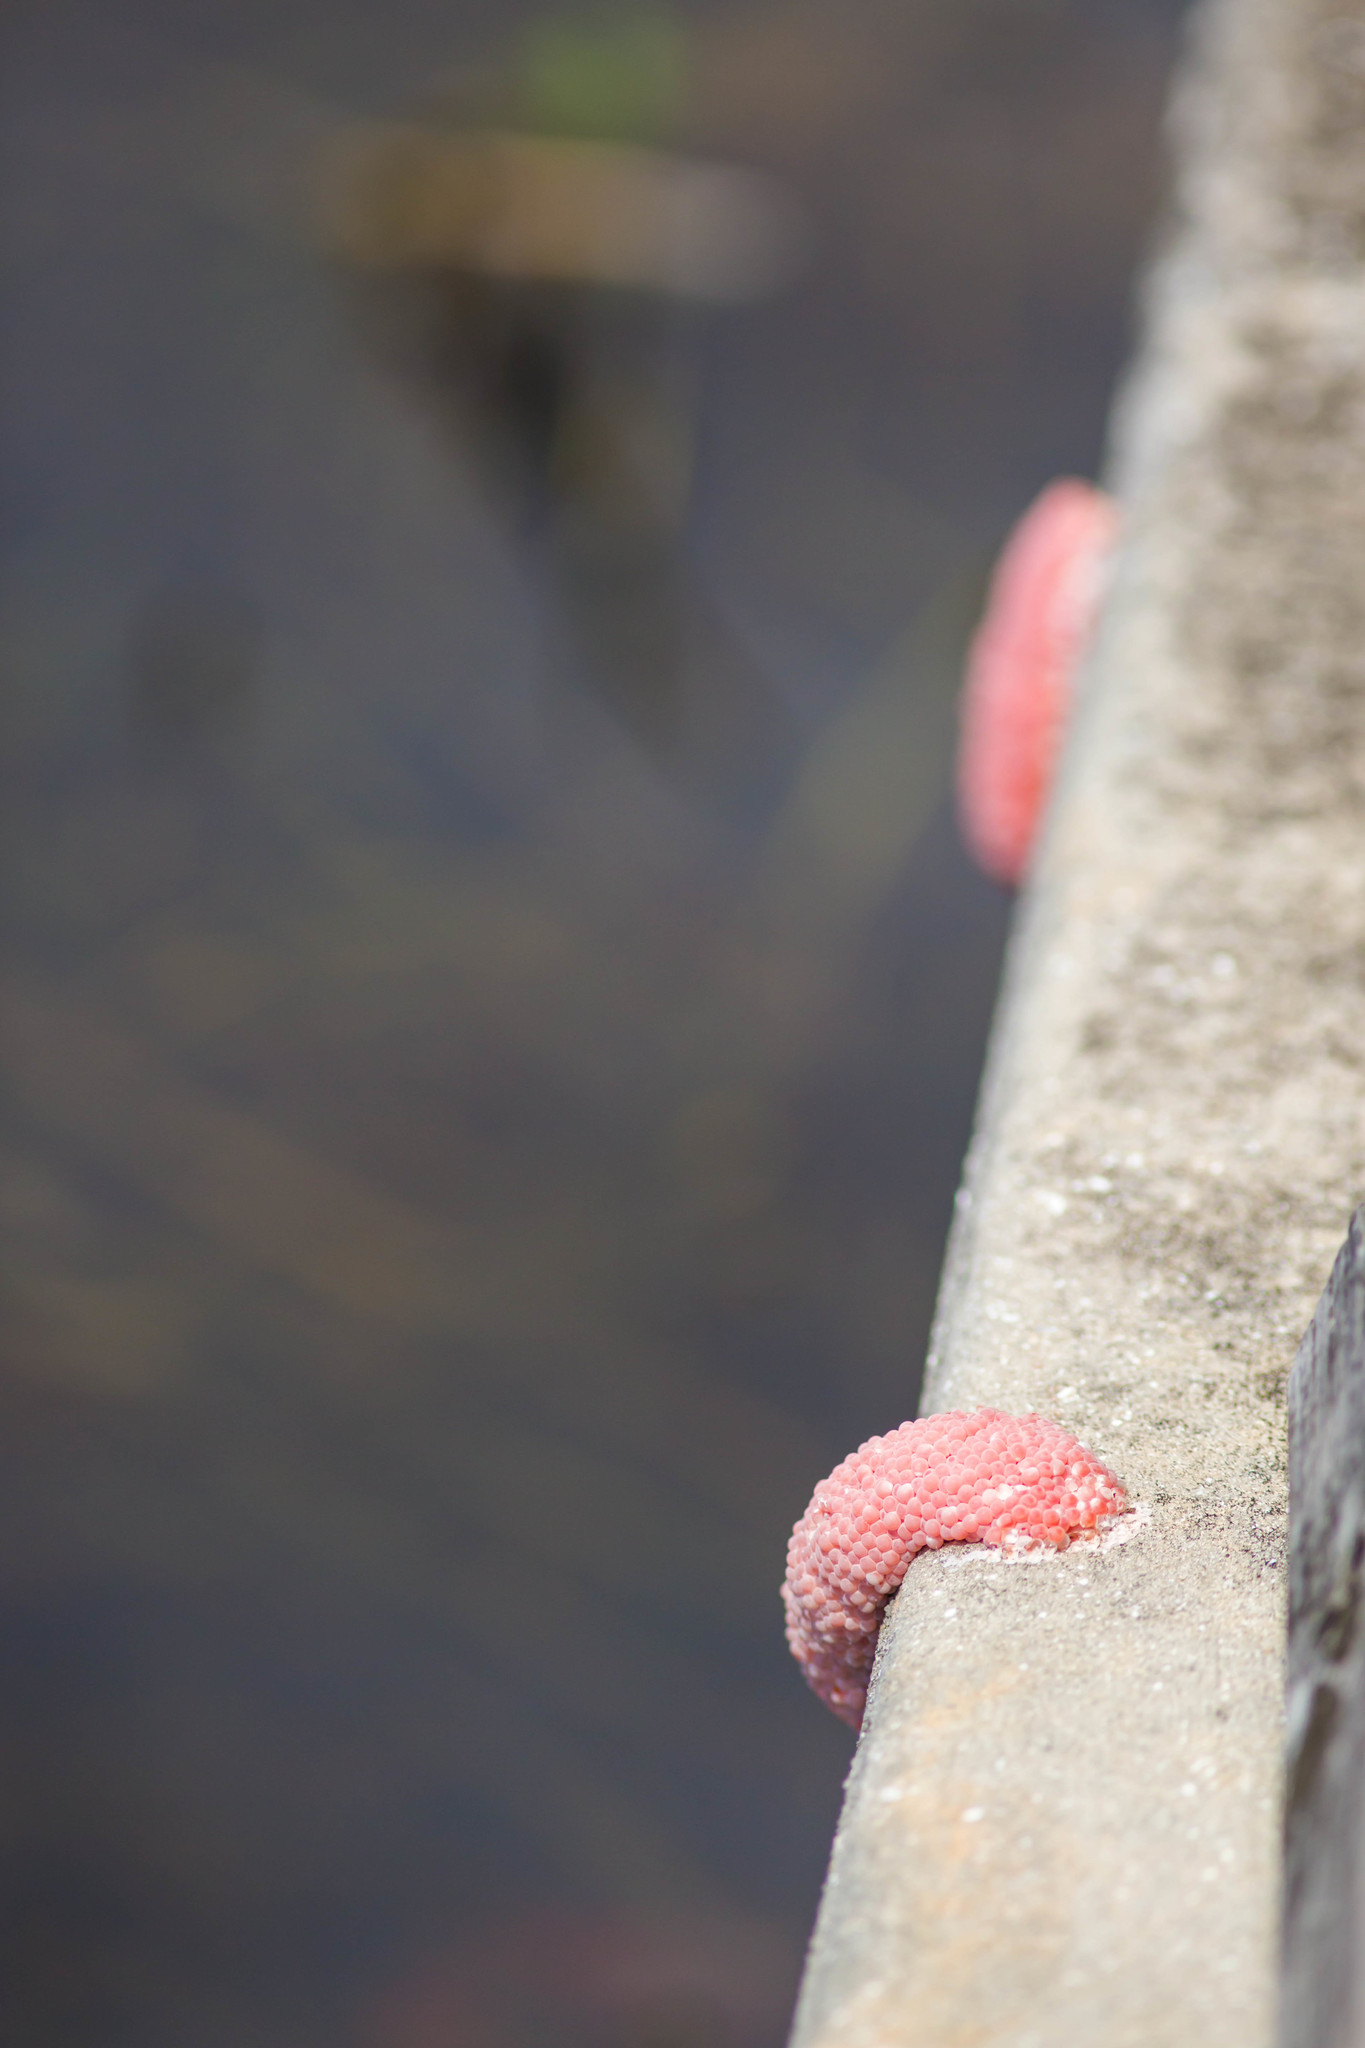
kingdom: Animalia
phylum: Mollusca
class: Gastropoda
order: Architaenioglossa
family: Ampullariidae
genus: Pomacea
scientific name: Pomacea maculata
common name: Giant applesnail
